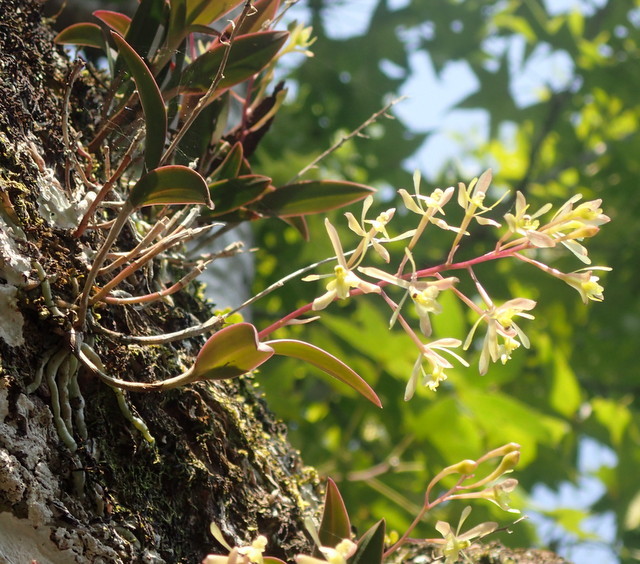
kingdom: Plantae
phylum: Tracheophyta
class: Liliopsida
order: Asparagales
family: Orchidaceae
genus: Epidendrum
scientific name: Epidendrum conopseum
